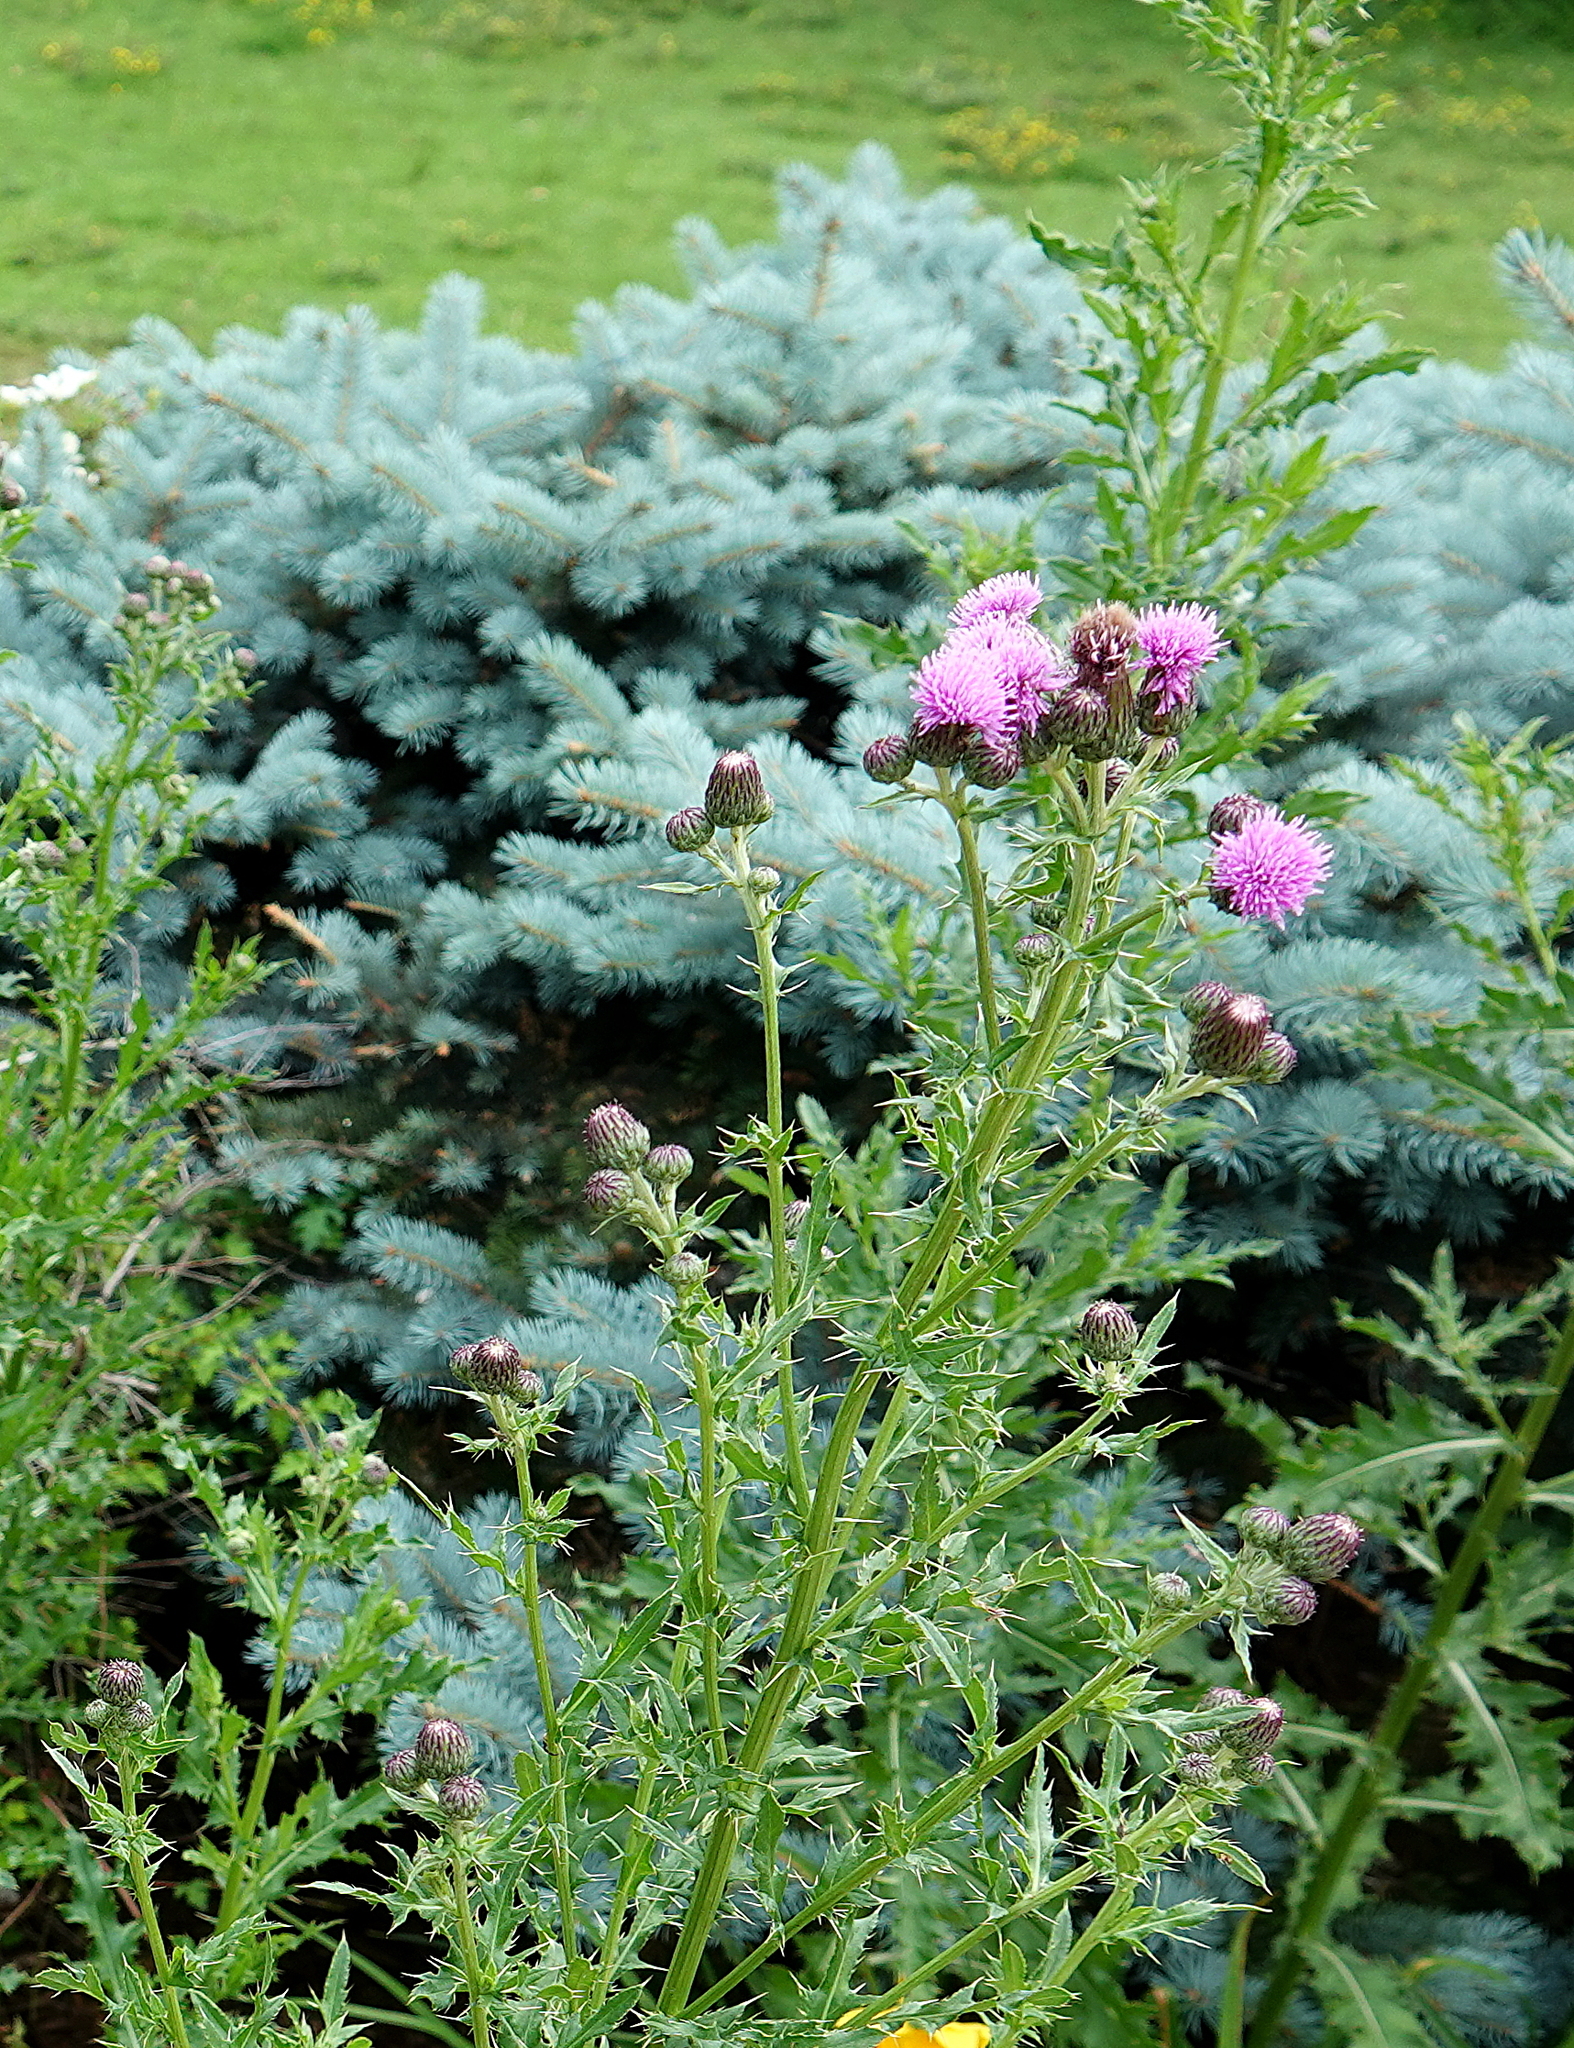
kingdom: Plantae
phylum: Tracheophyta
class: Magnoliopsida
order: Asterales
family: Asteraceae
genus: Cirsium
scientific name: Cirsium arvense
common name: Creeping thistle
